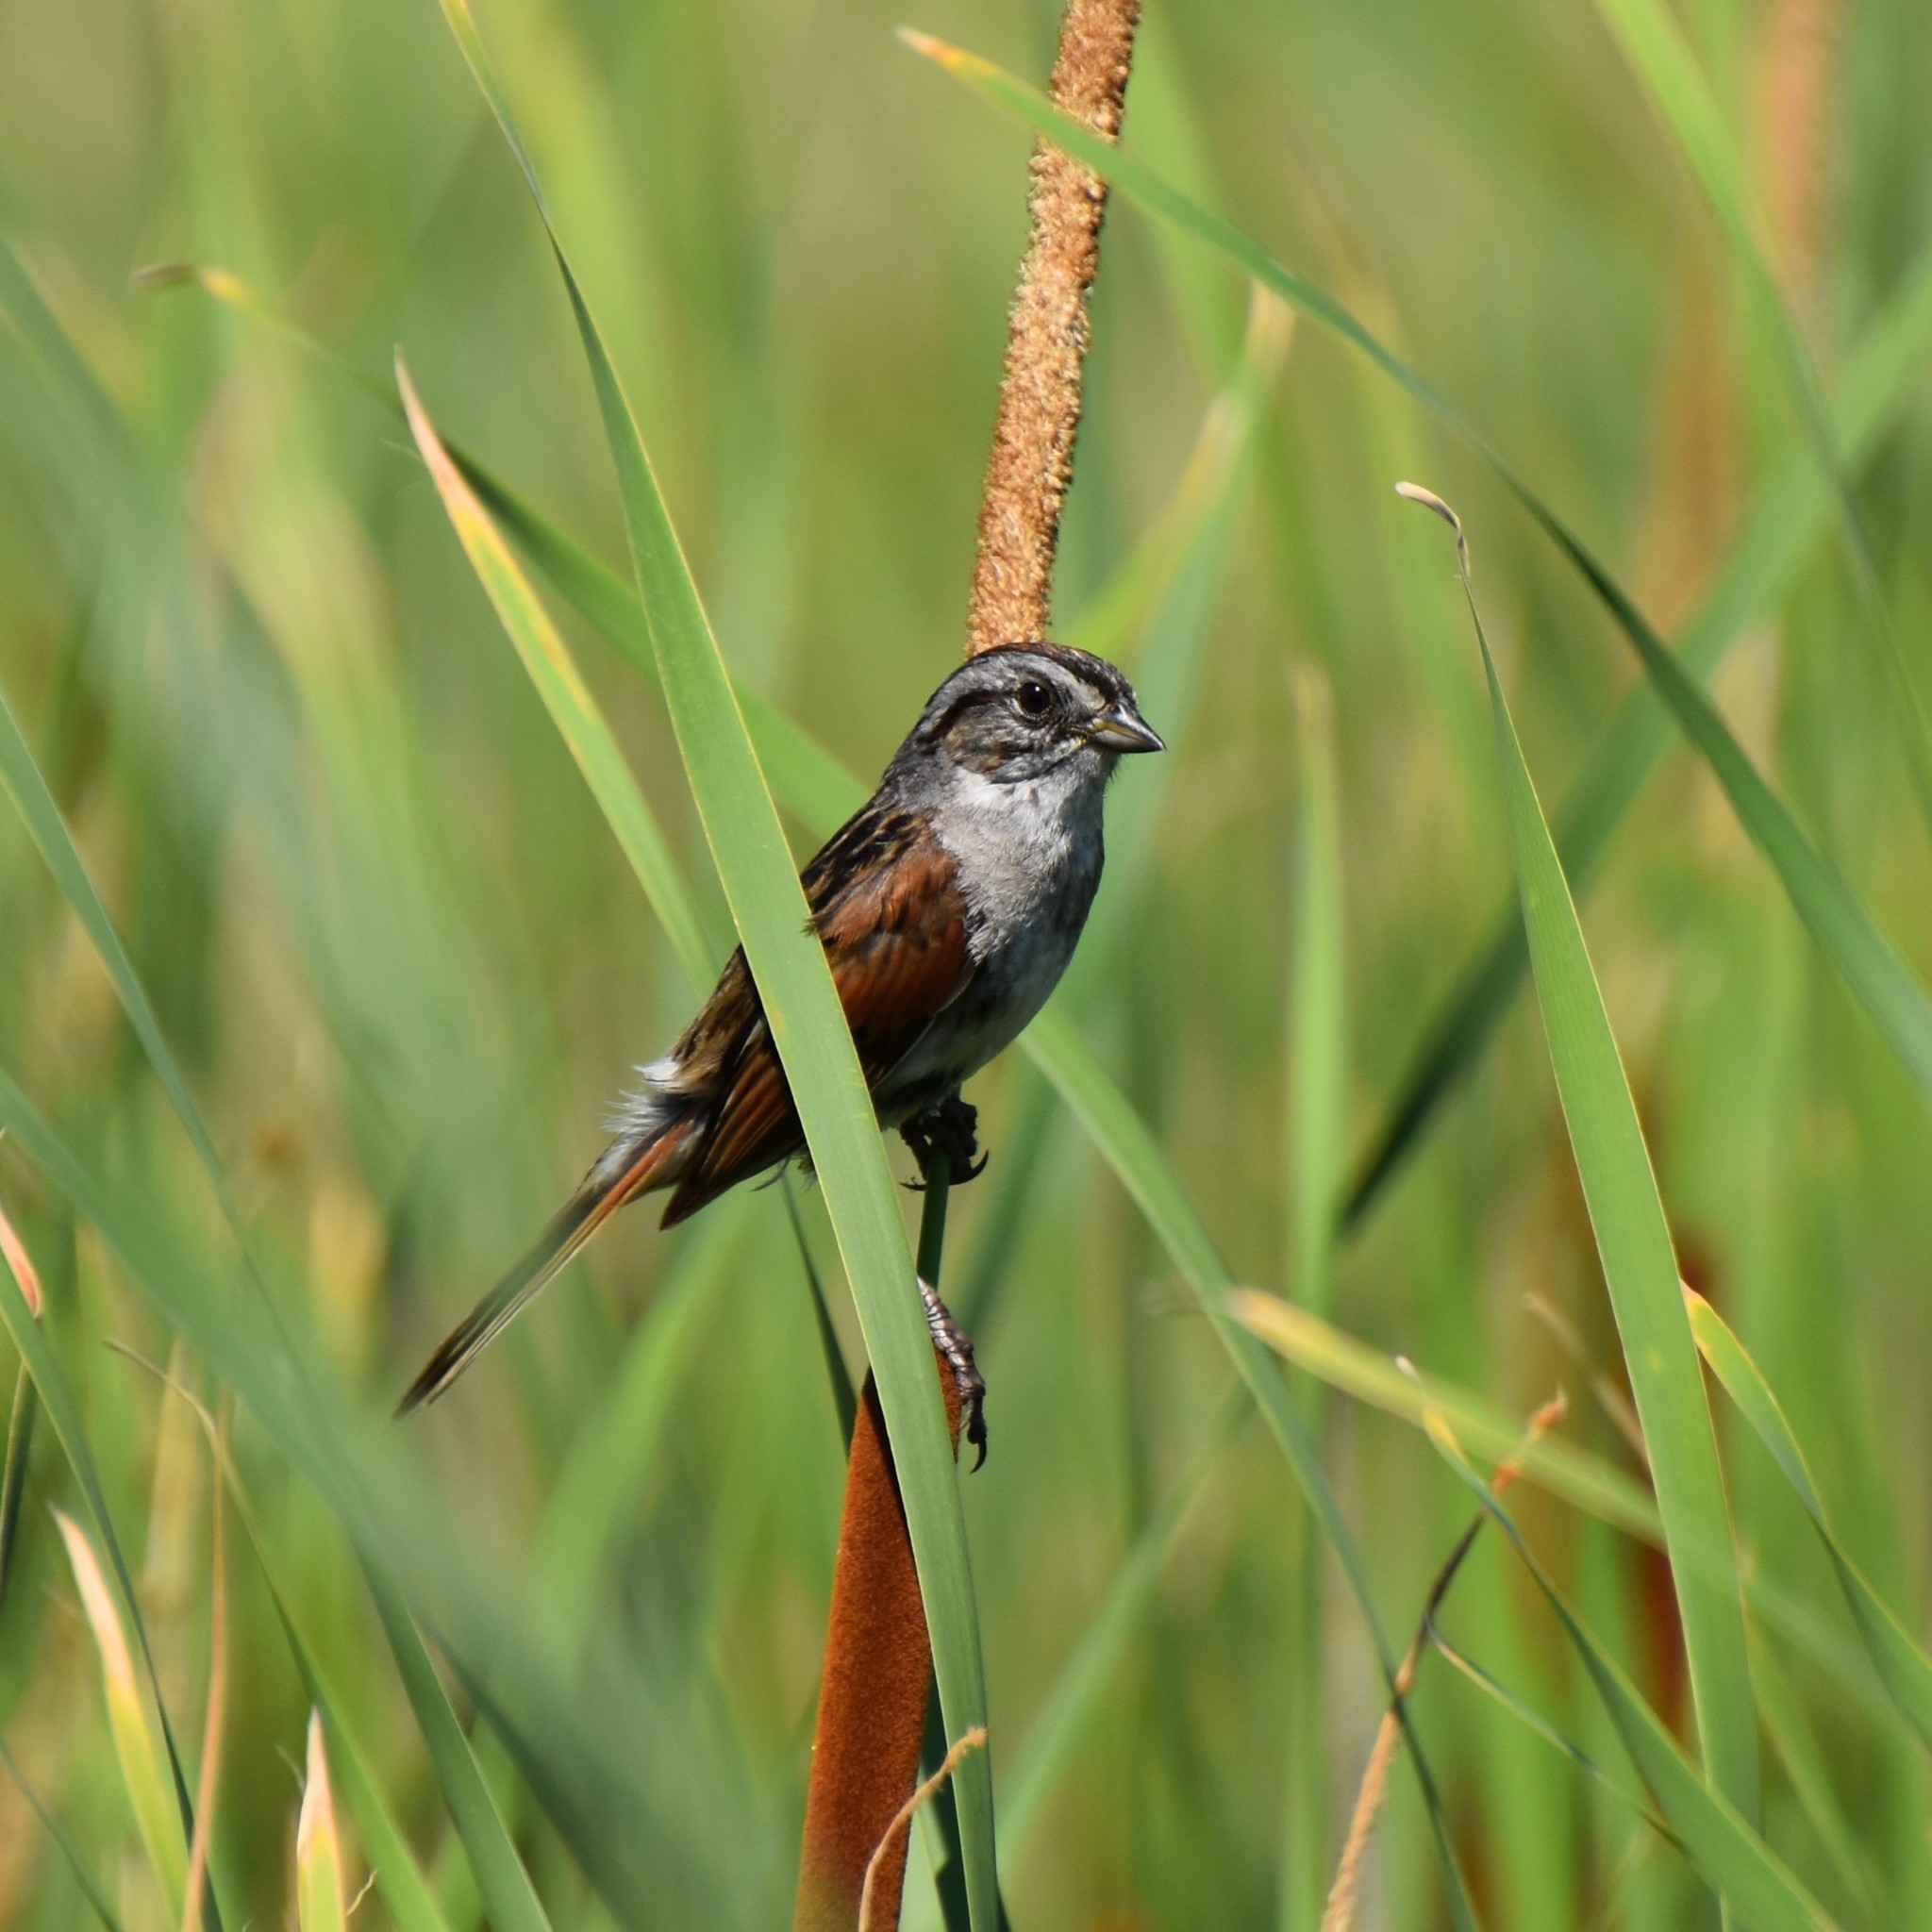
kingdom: Animalia
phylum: Chordata
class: Aves
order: Passeriformes
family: Passerellidae
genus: Melospiza
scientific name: Melospiza georgiana
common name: Swamp sparrow
